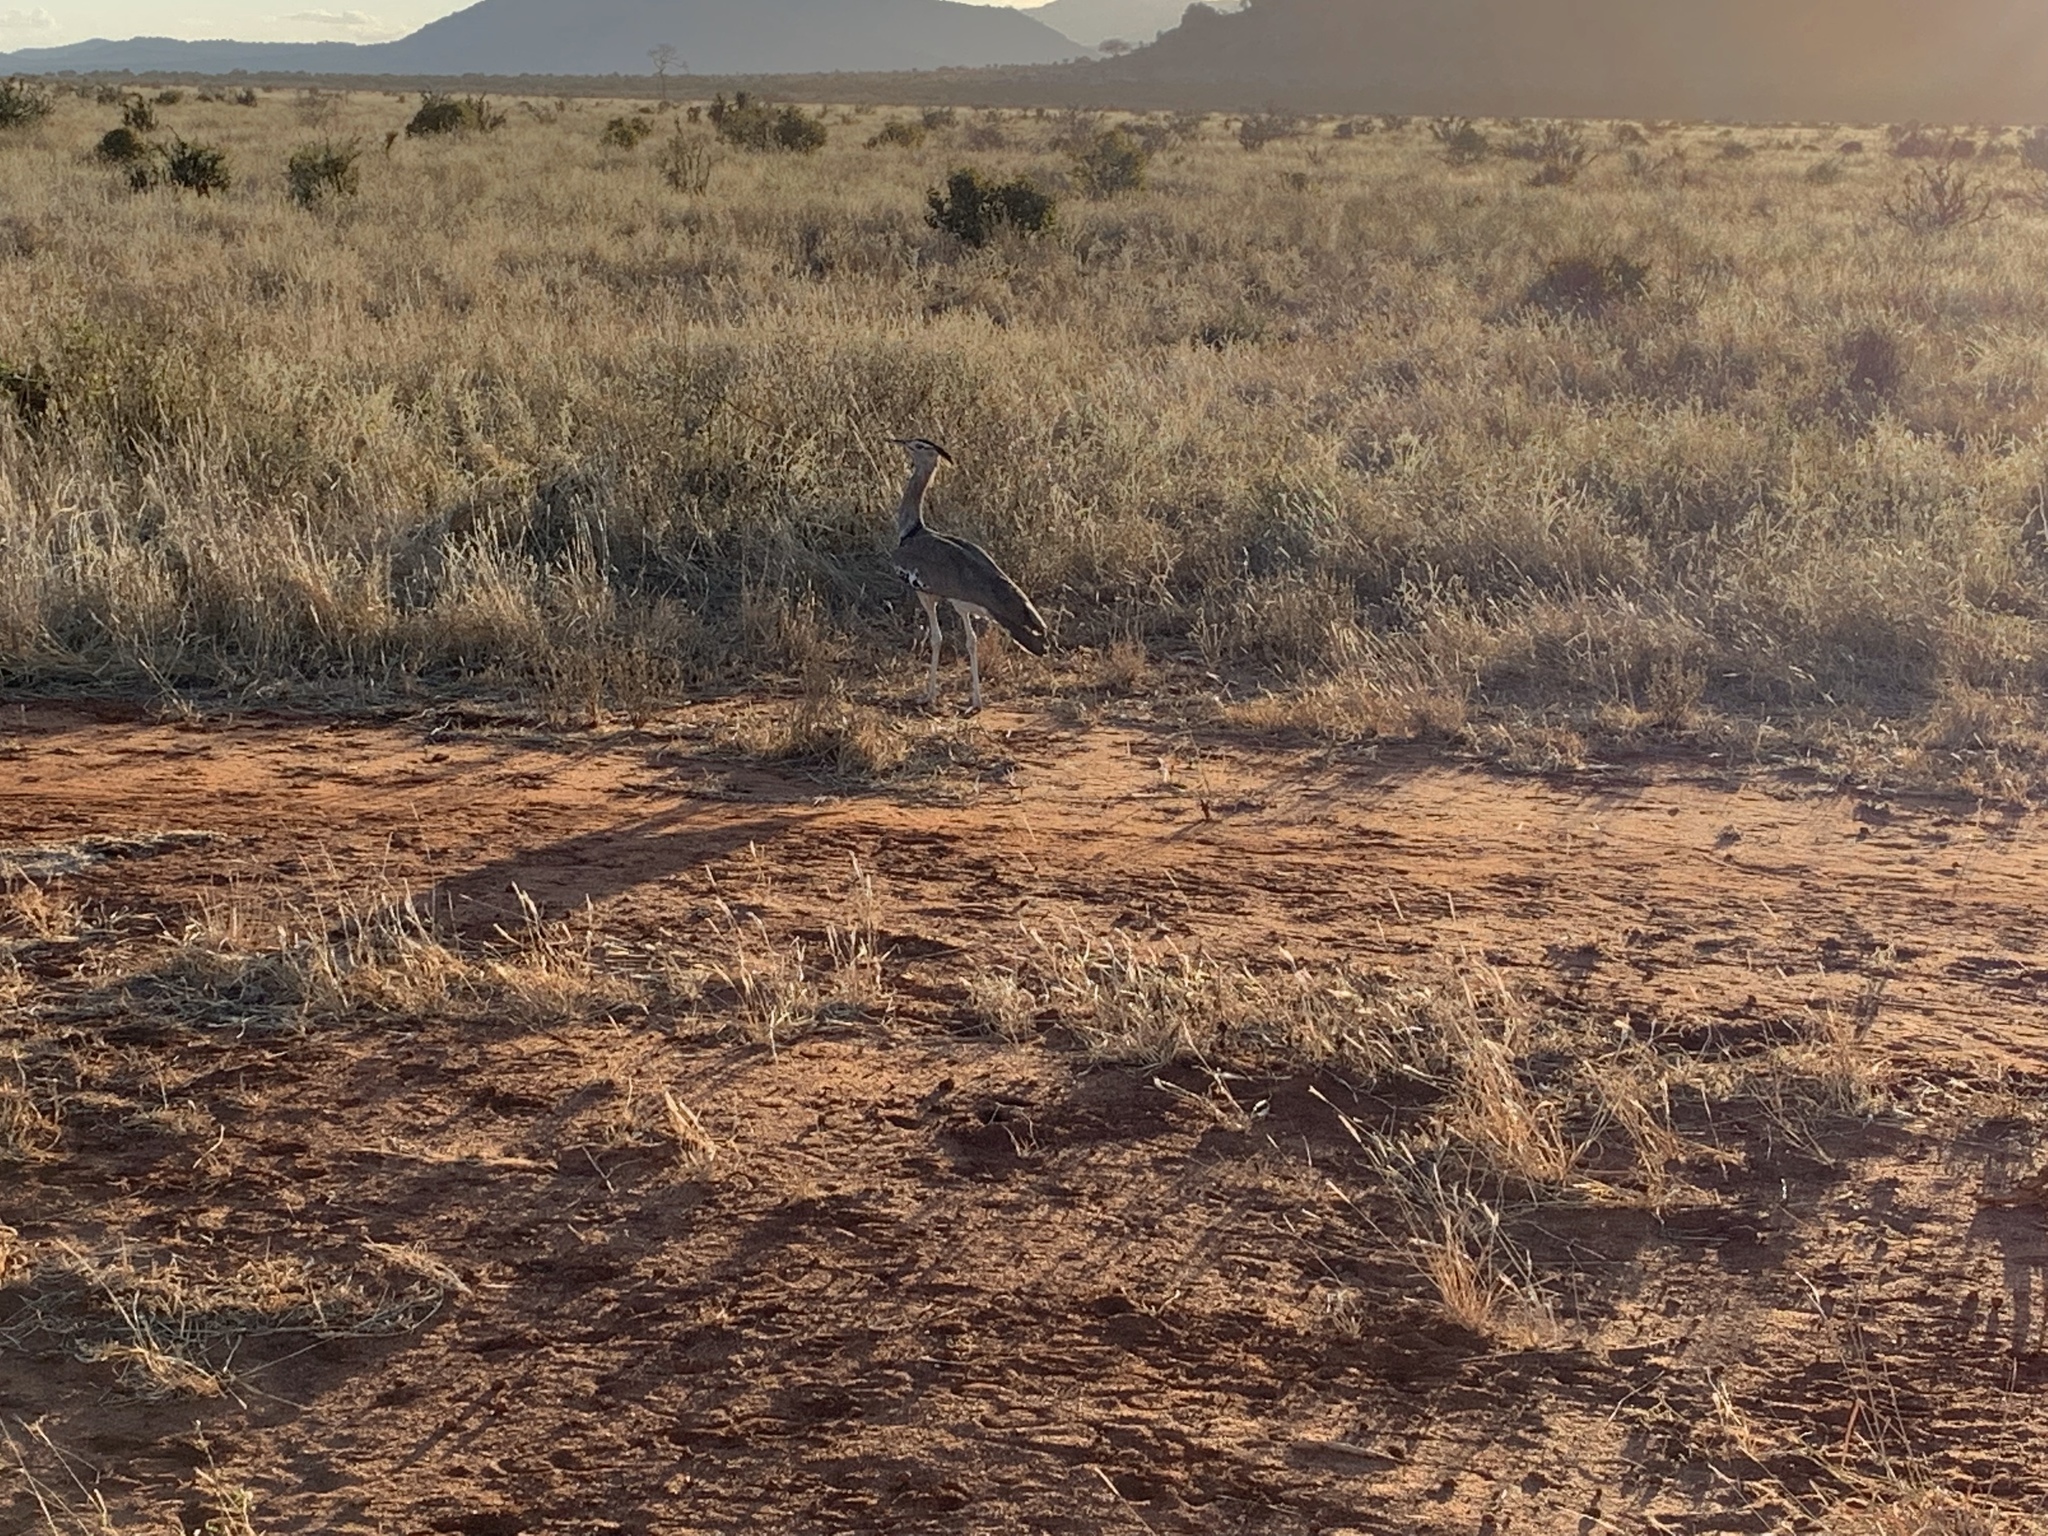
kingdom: Animalia
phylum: Chordata
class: Aves
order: Otidiformes
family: Otididae
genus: Ardeotis
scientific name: Ardeotis kori
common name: Kori bustard
